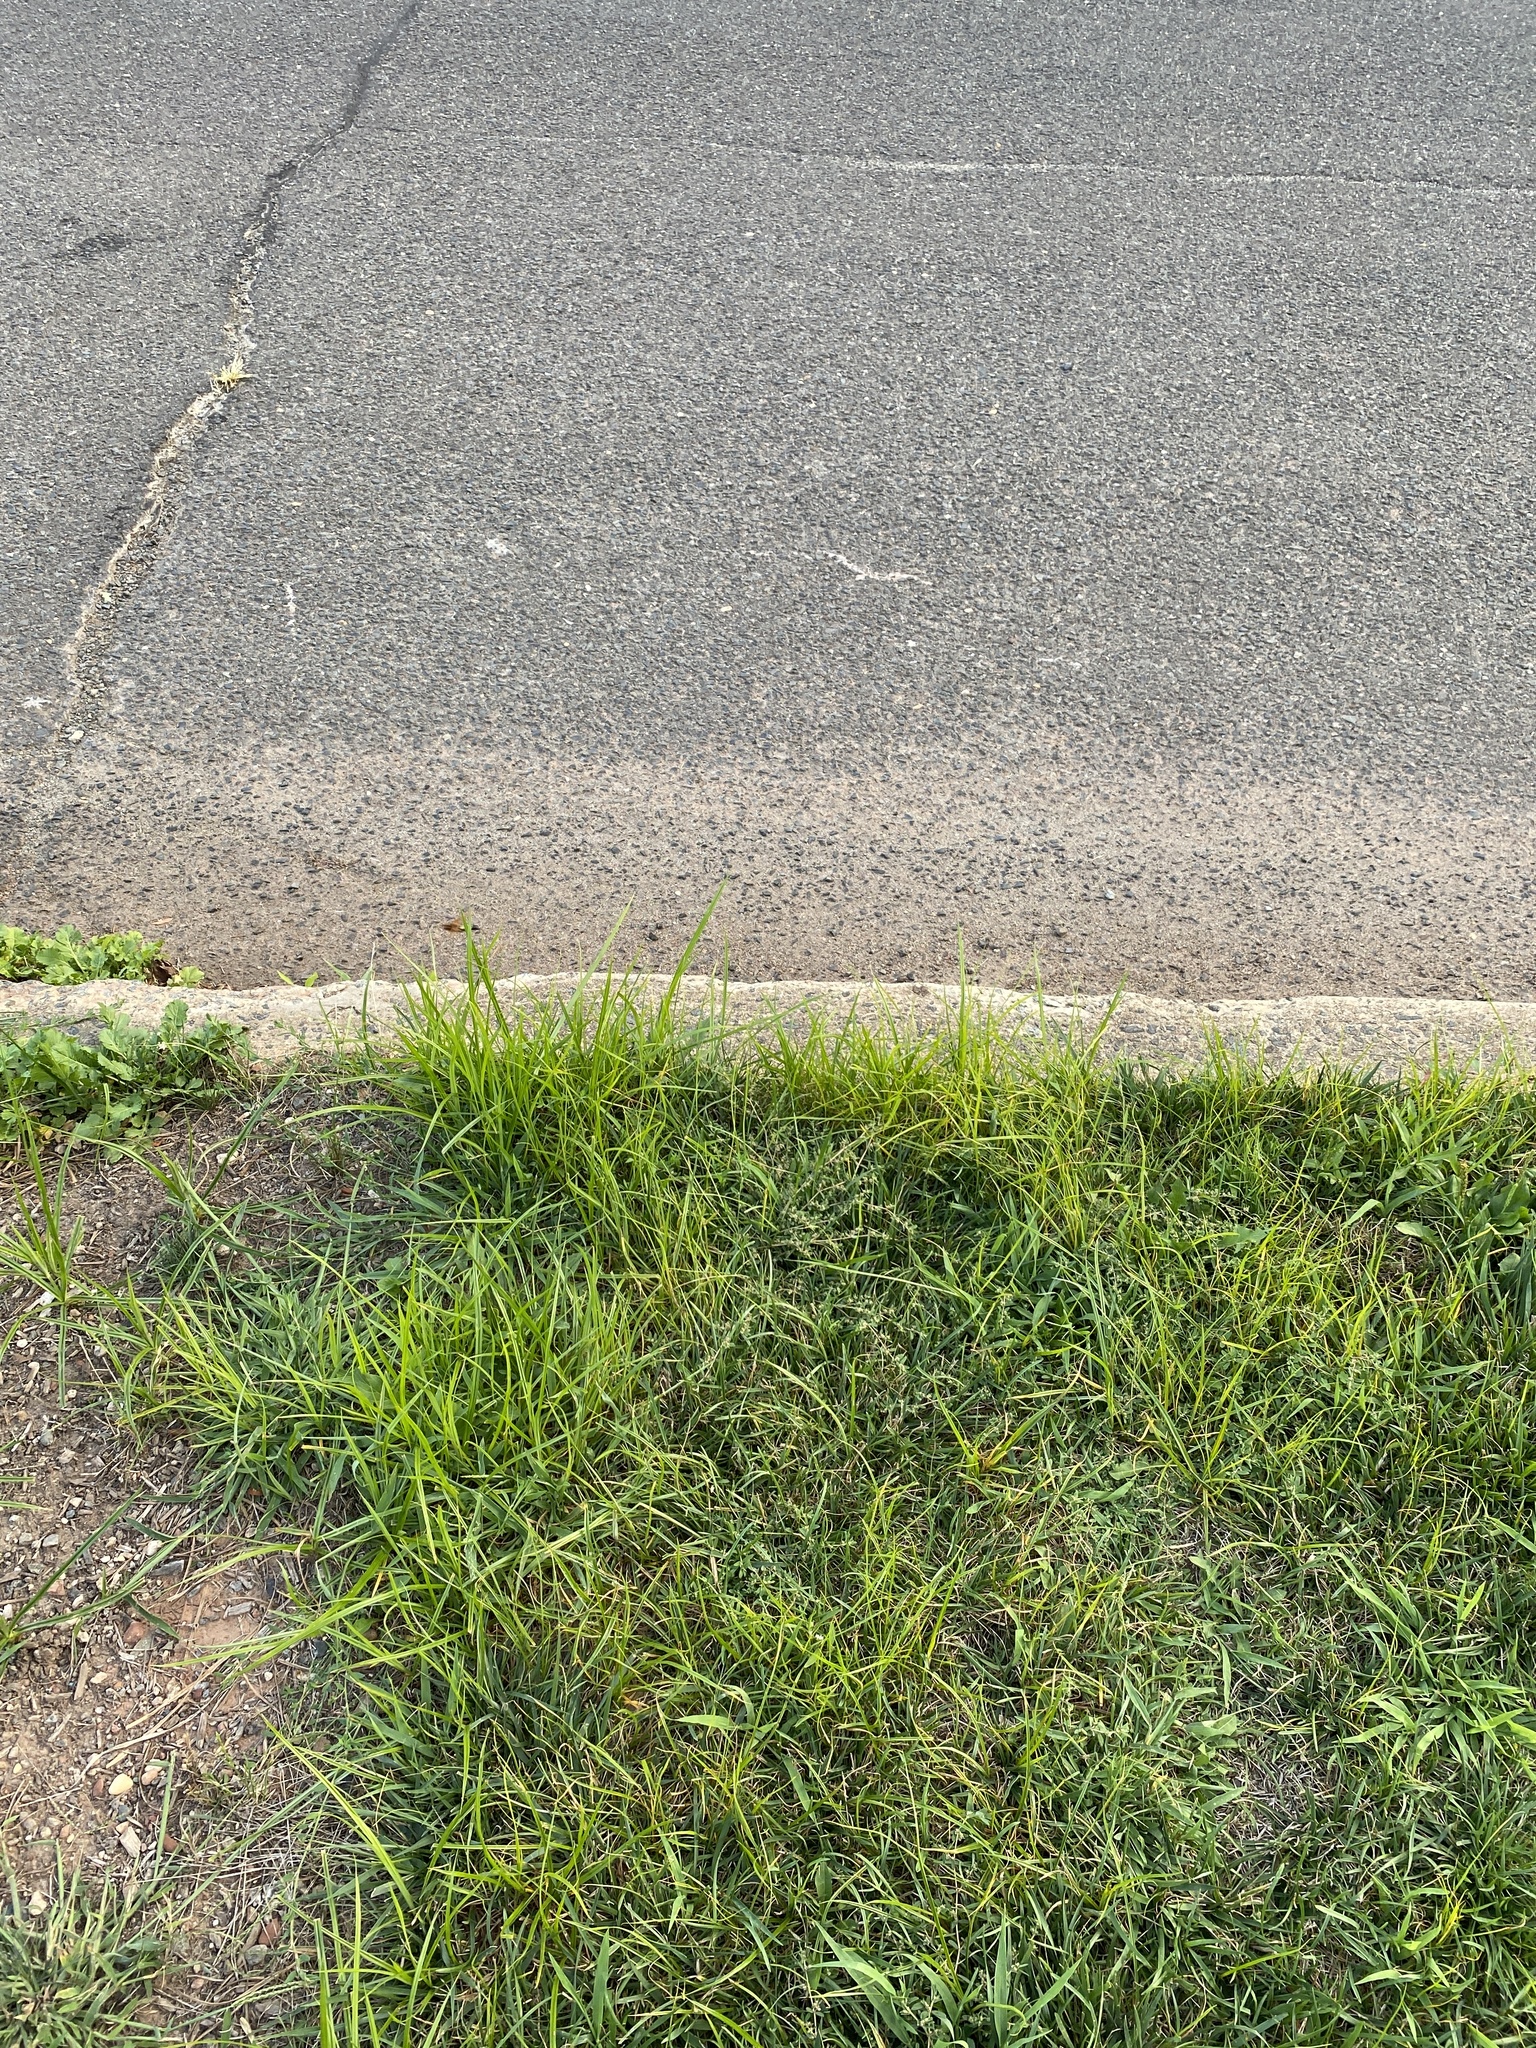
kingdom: Animalia
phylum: Arthropoda
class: Insecta
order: Hymenoptera
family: Crabronidae
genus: Sphecius
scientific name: Sphecius speciosus
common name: Cicada killer
